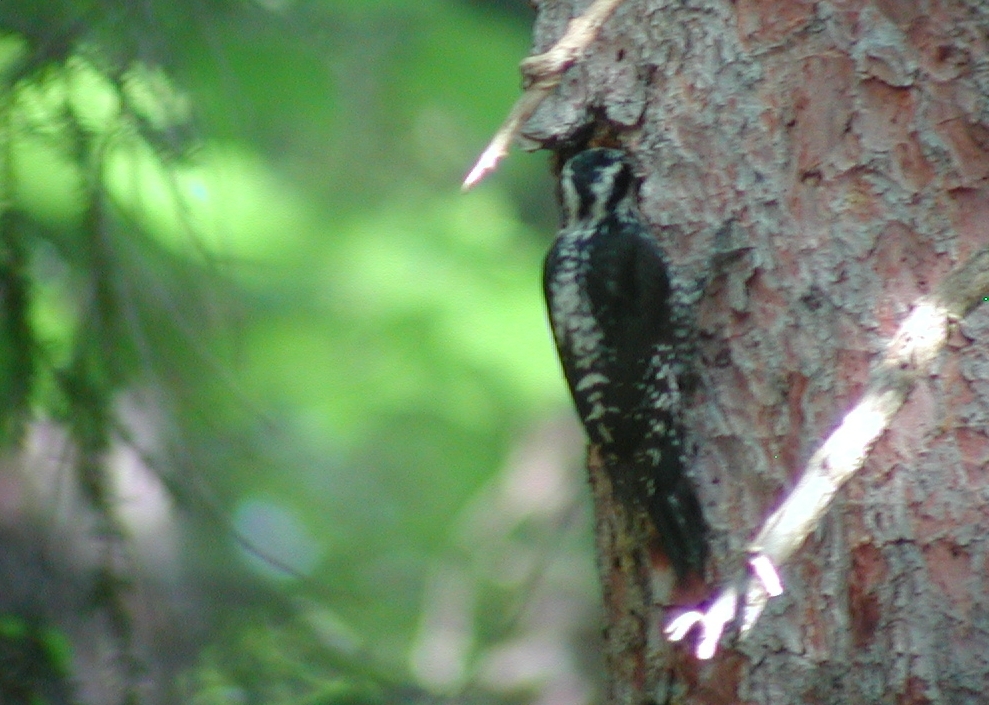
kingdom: Animalia
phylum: Chordata
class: Aves
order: Piciformes
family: Picidae
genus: Picoides
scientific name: Picoides tridactylus
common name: Eurasian three-toed woodpecker
